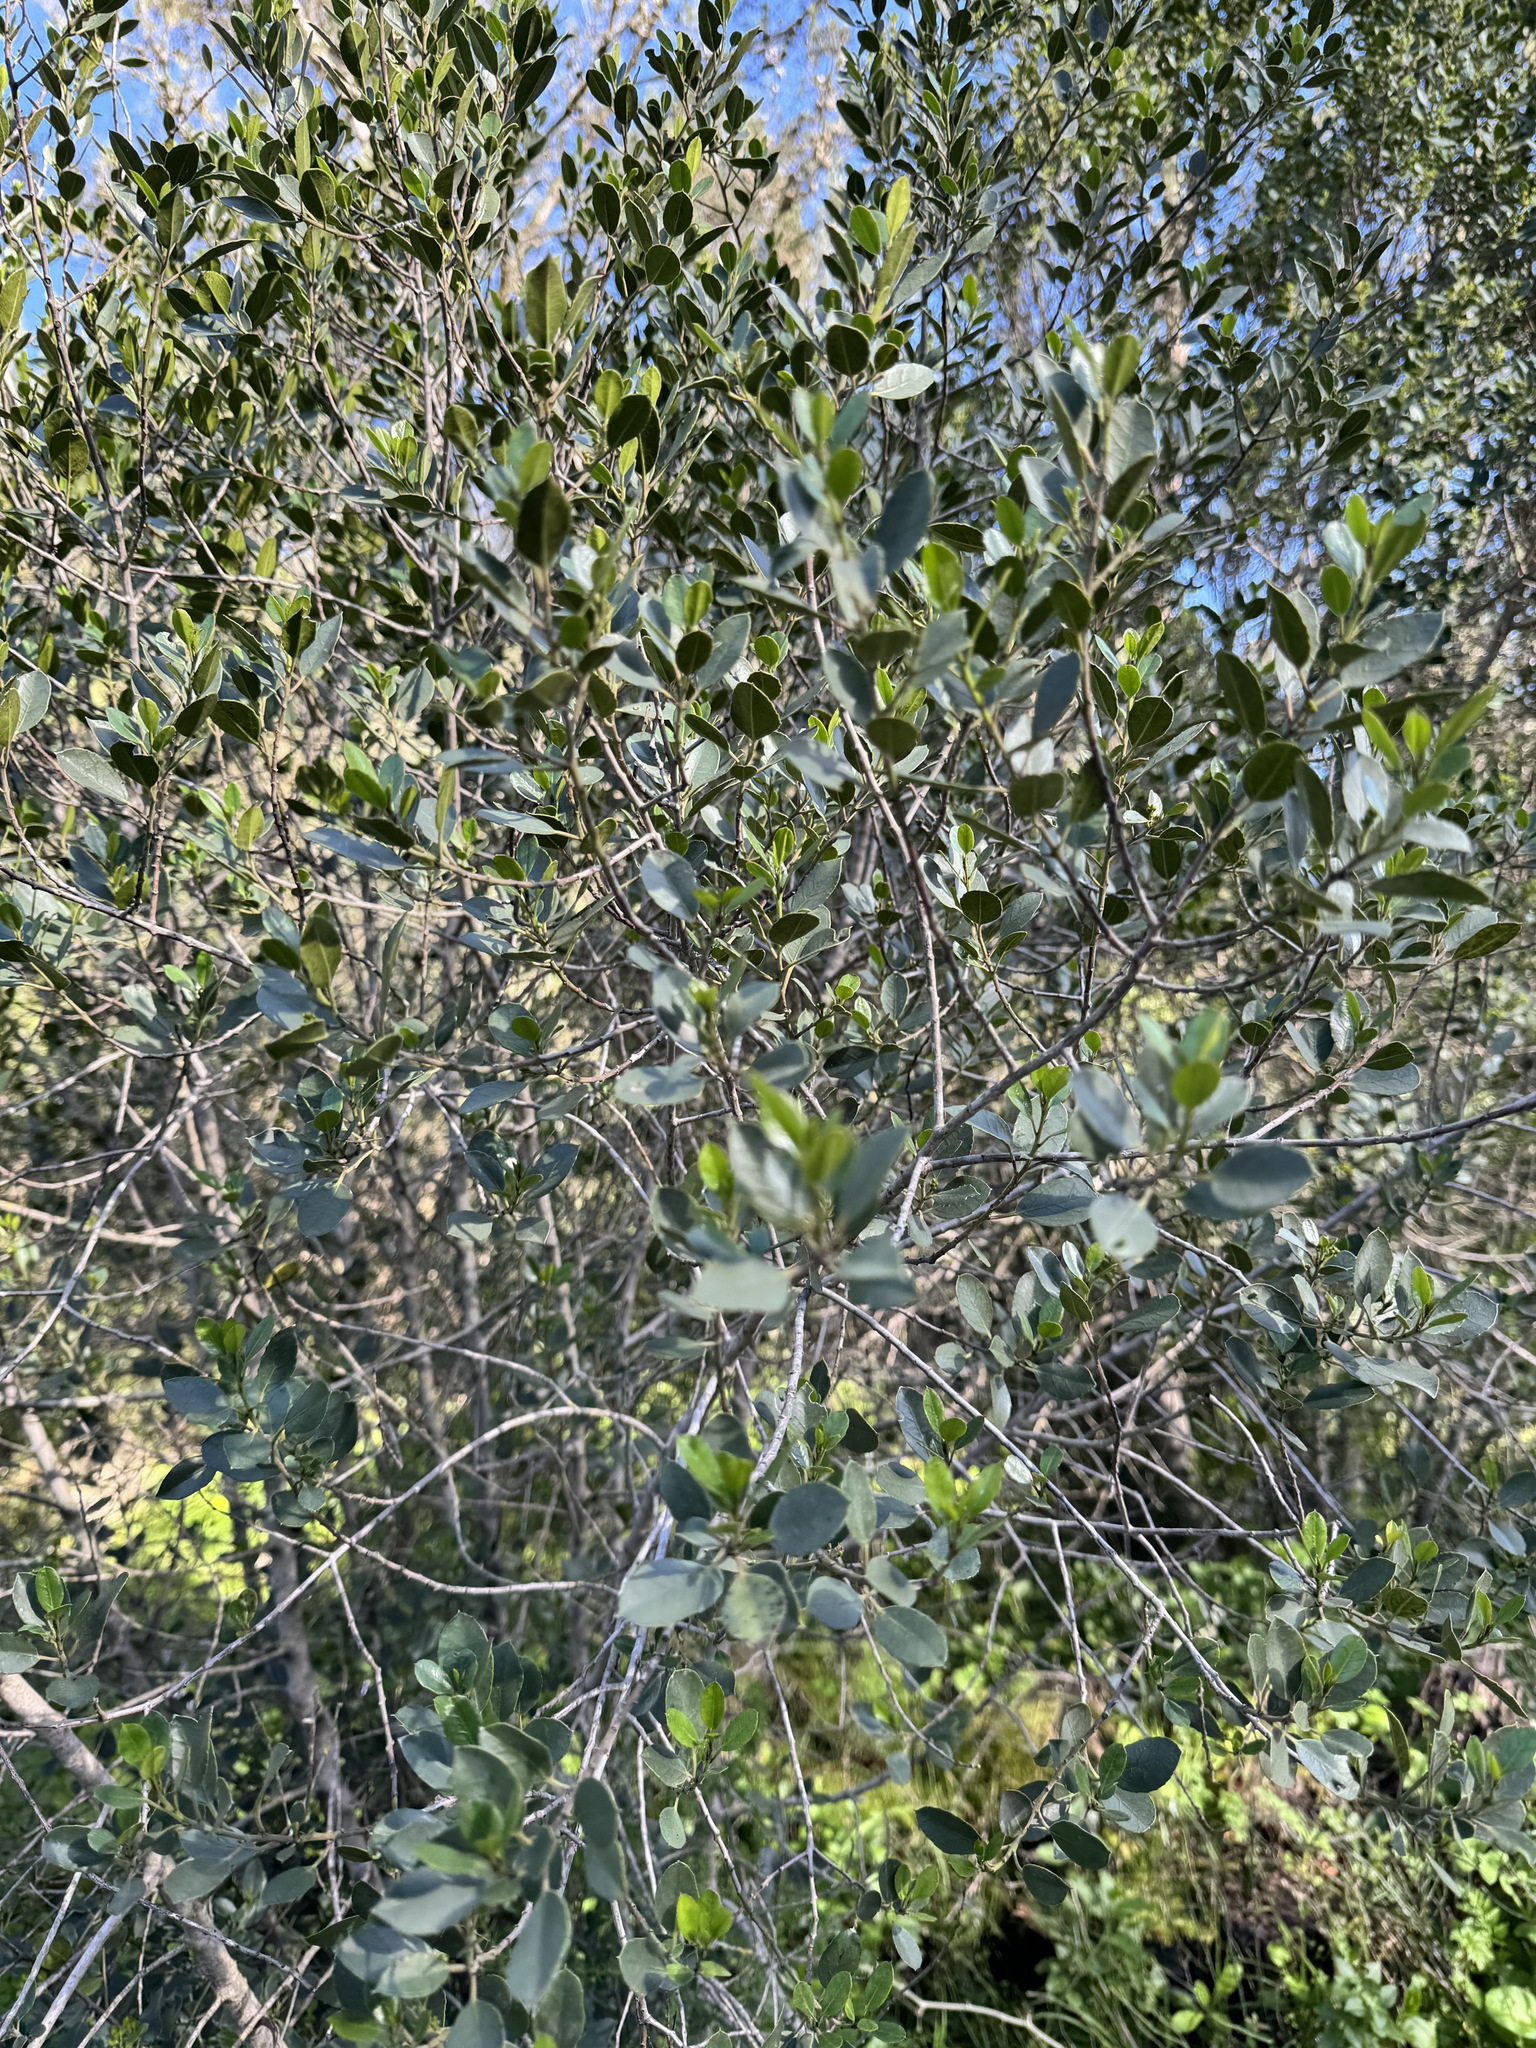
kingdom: Plantae
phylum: Tracheophyta
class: Magnoliopsida
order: Rosales
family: Rhamnaceae
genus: Rhamnus
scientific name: Rhamnus alaternus
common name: Mediterranean buckthorn
